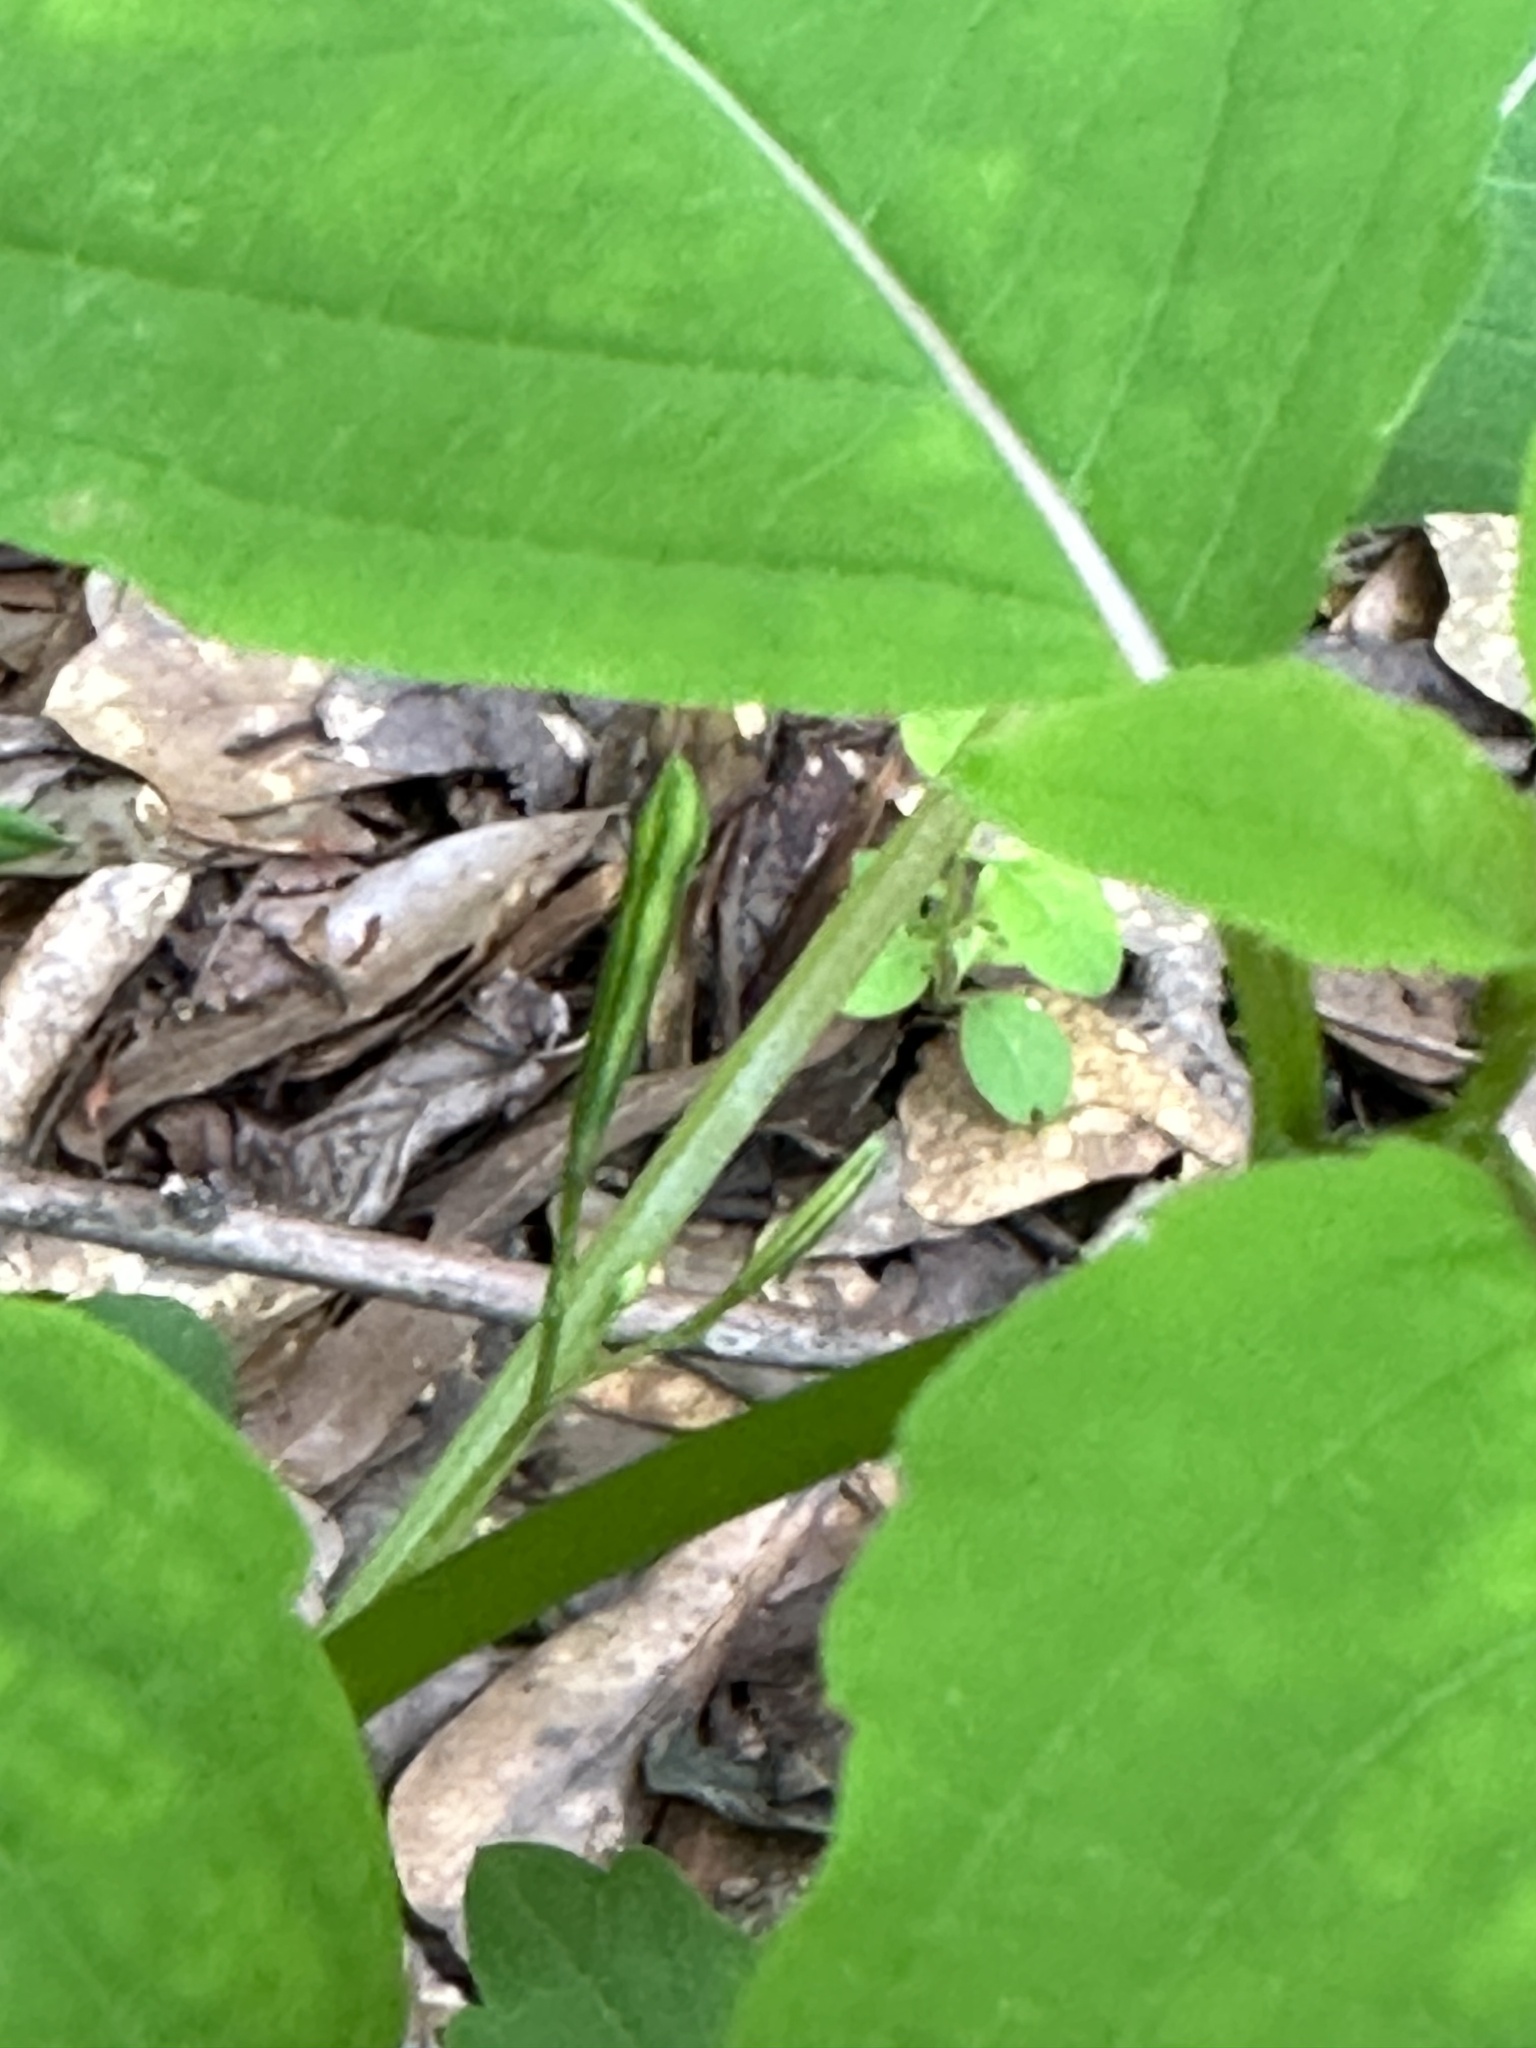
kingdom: Plantae
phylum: Tracheophyta
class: Magnoliopsida
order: Ericales
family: Balsaminaceae
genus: Impatiens
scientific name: Impatiens capensis
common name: Orange balsam
